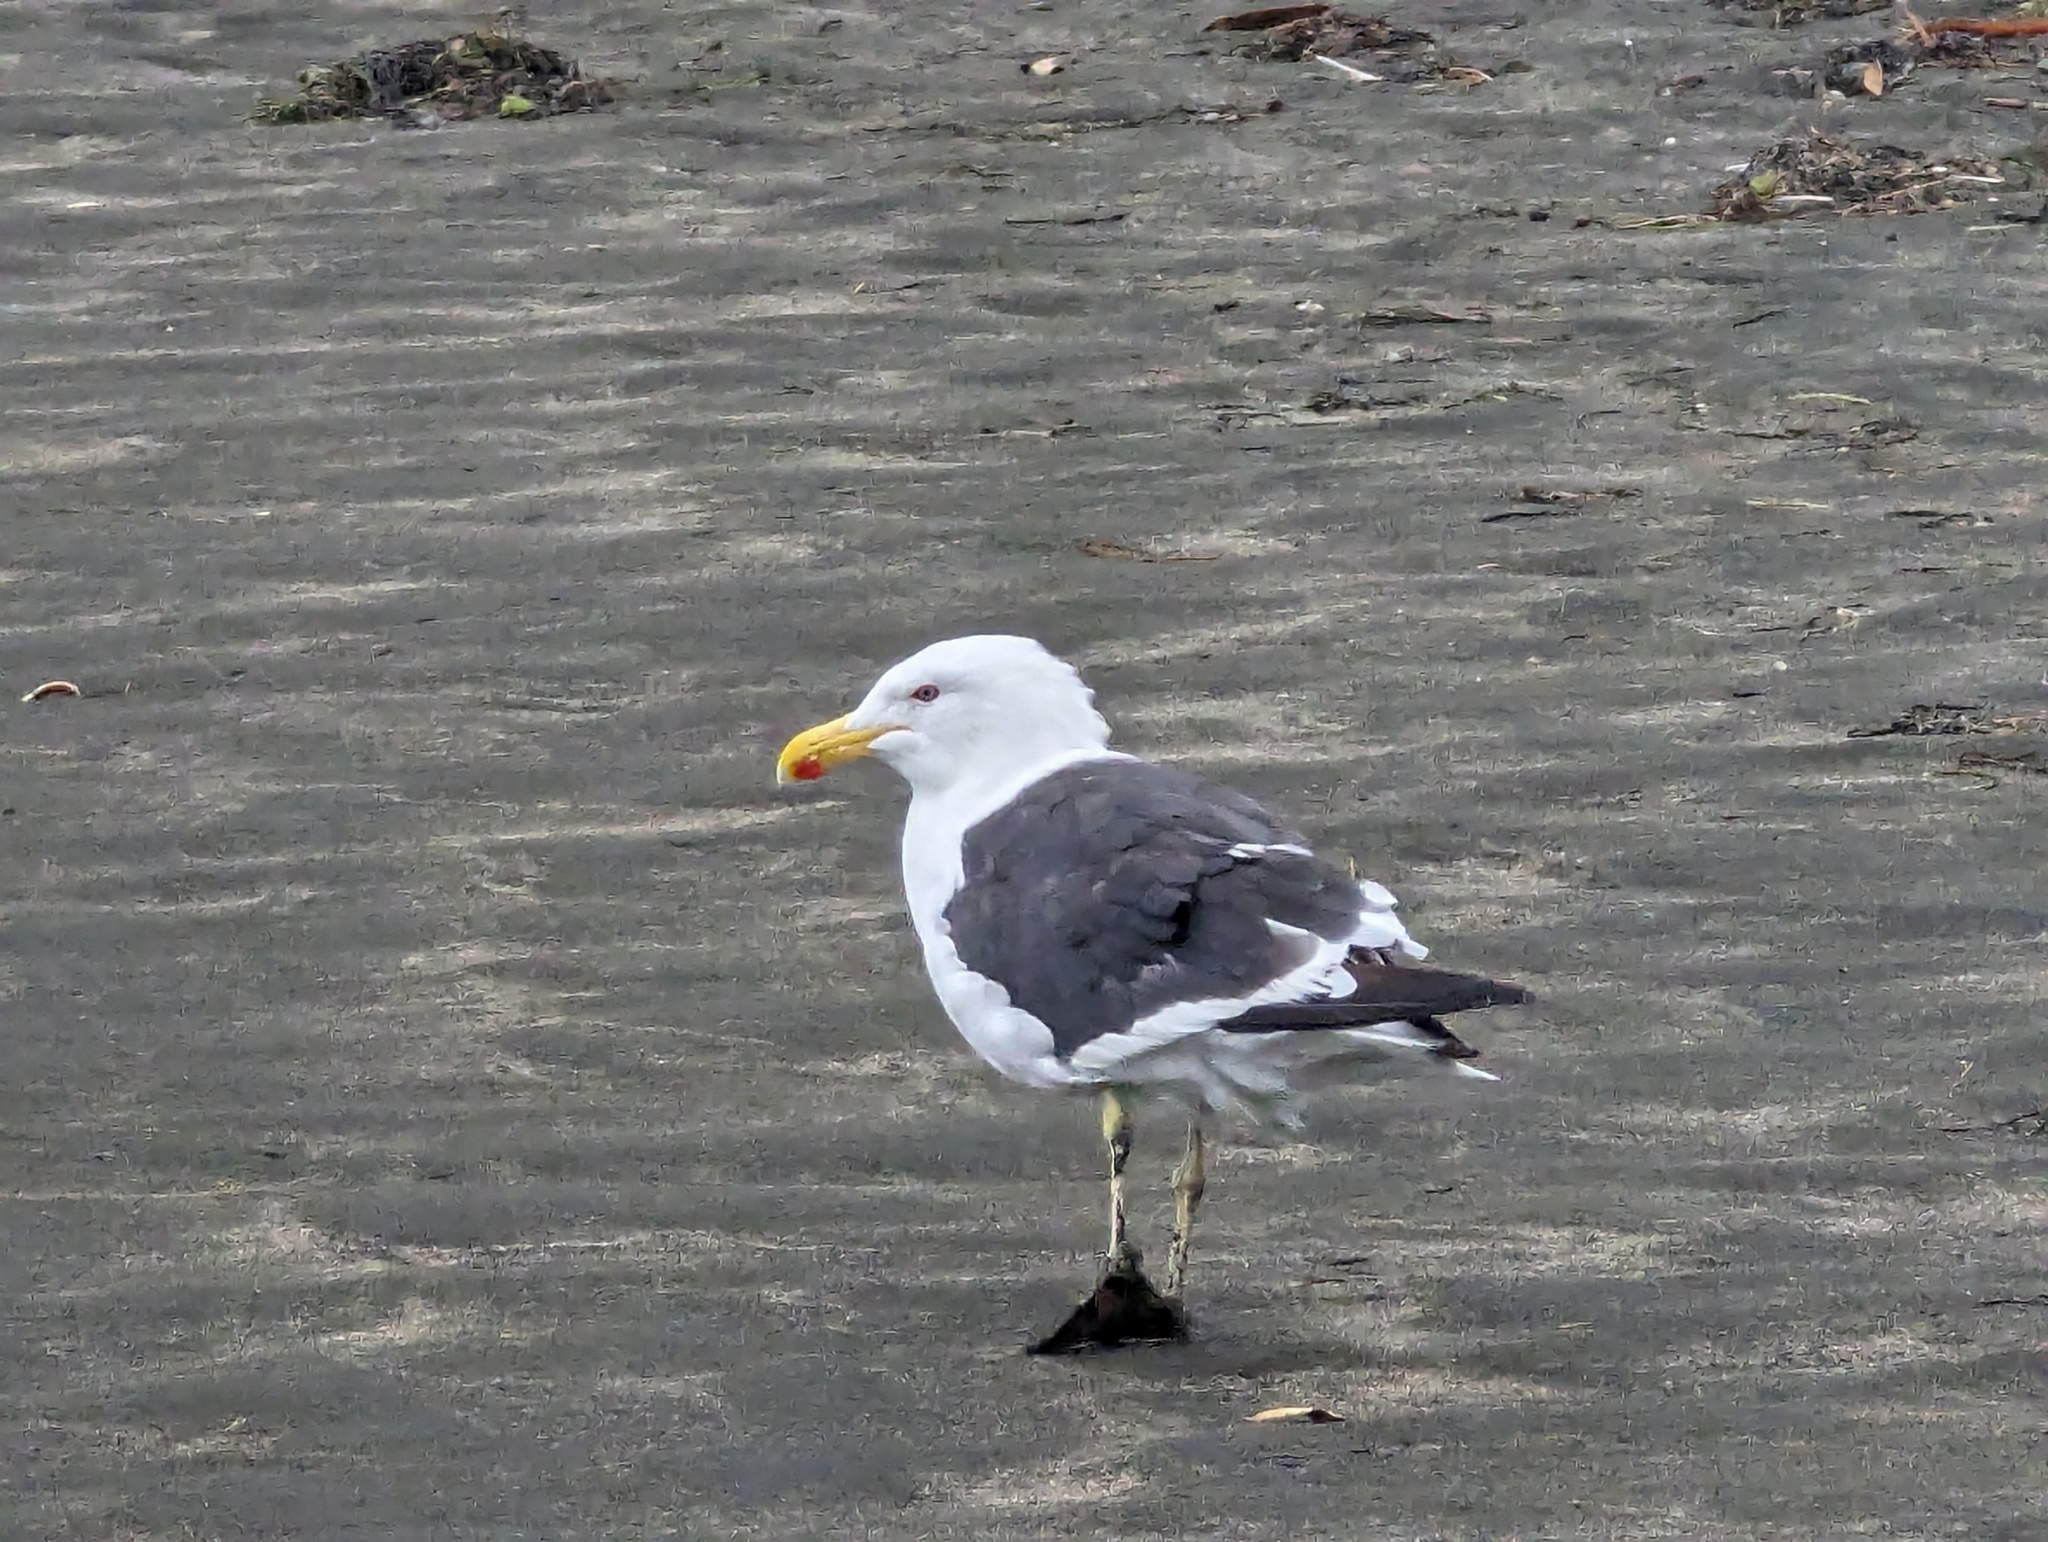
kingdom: Animalia
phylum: Chordata
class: Aves
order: Charadriiformes
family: Laridae
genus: Larus
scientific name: Larus dominicanus
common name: Kelp gull
